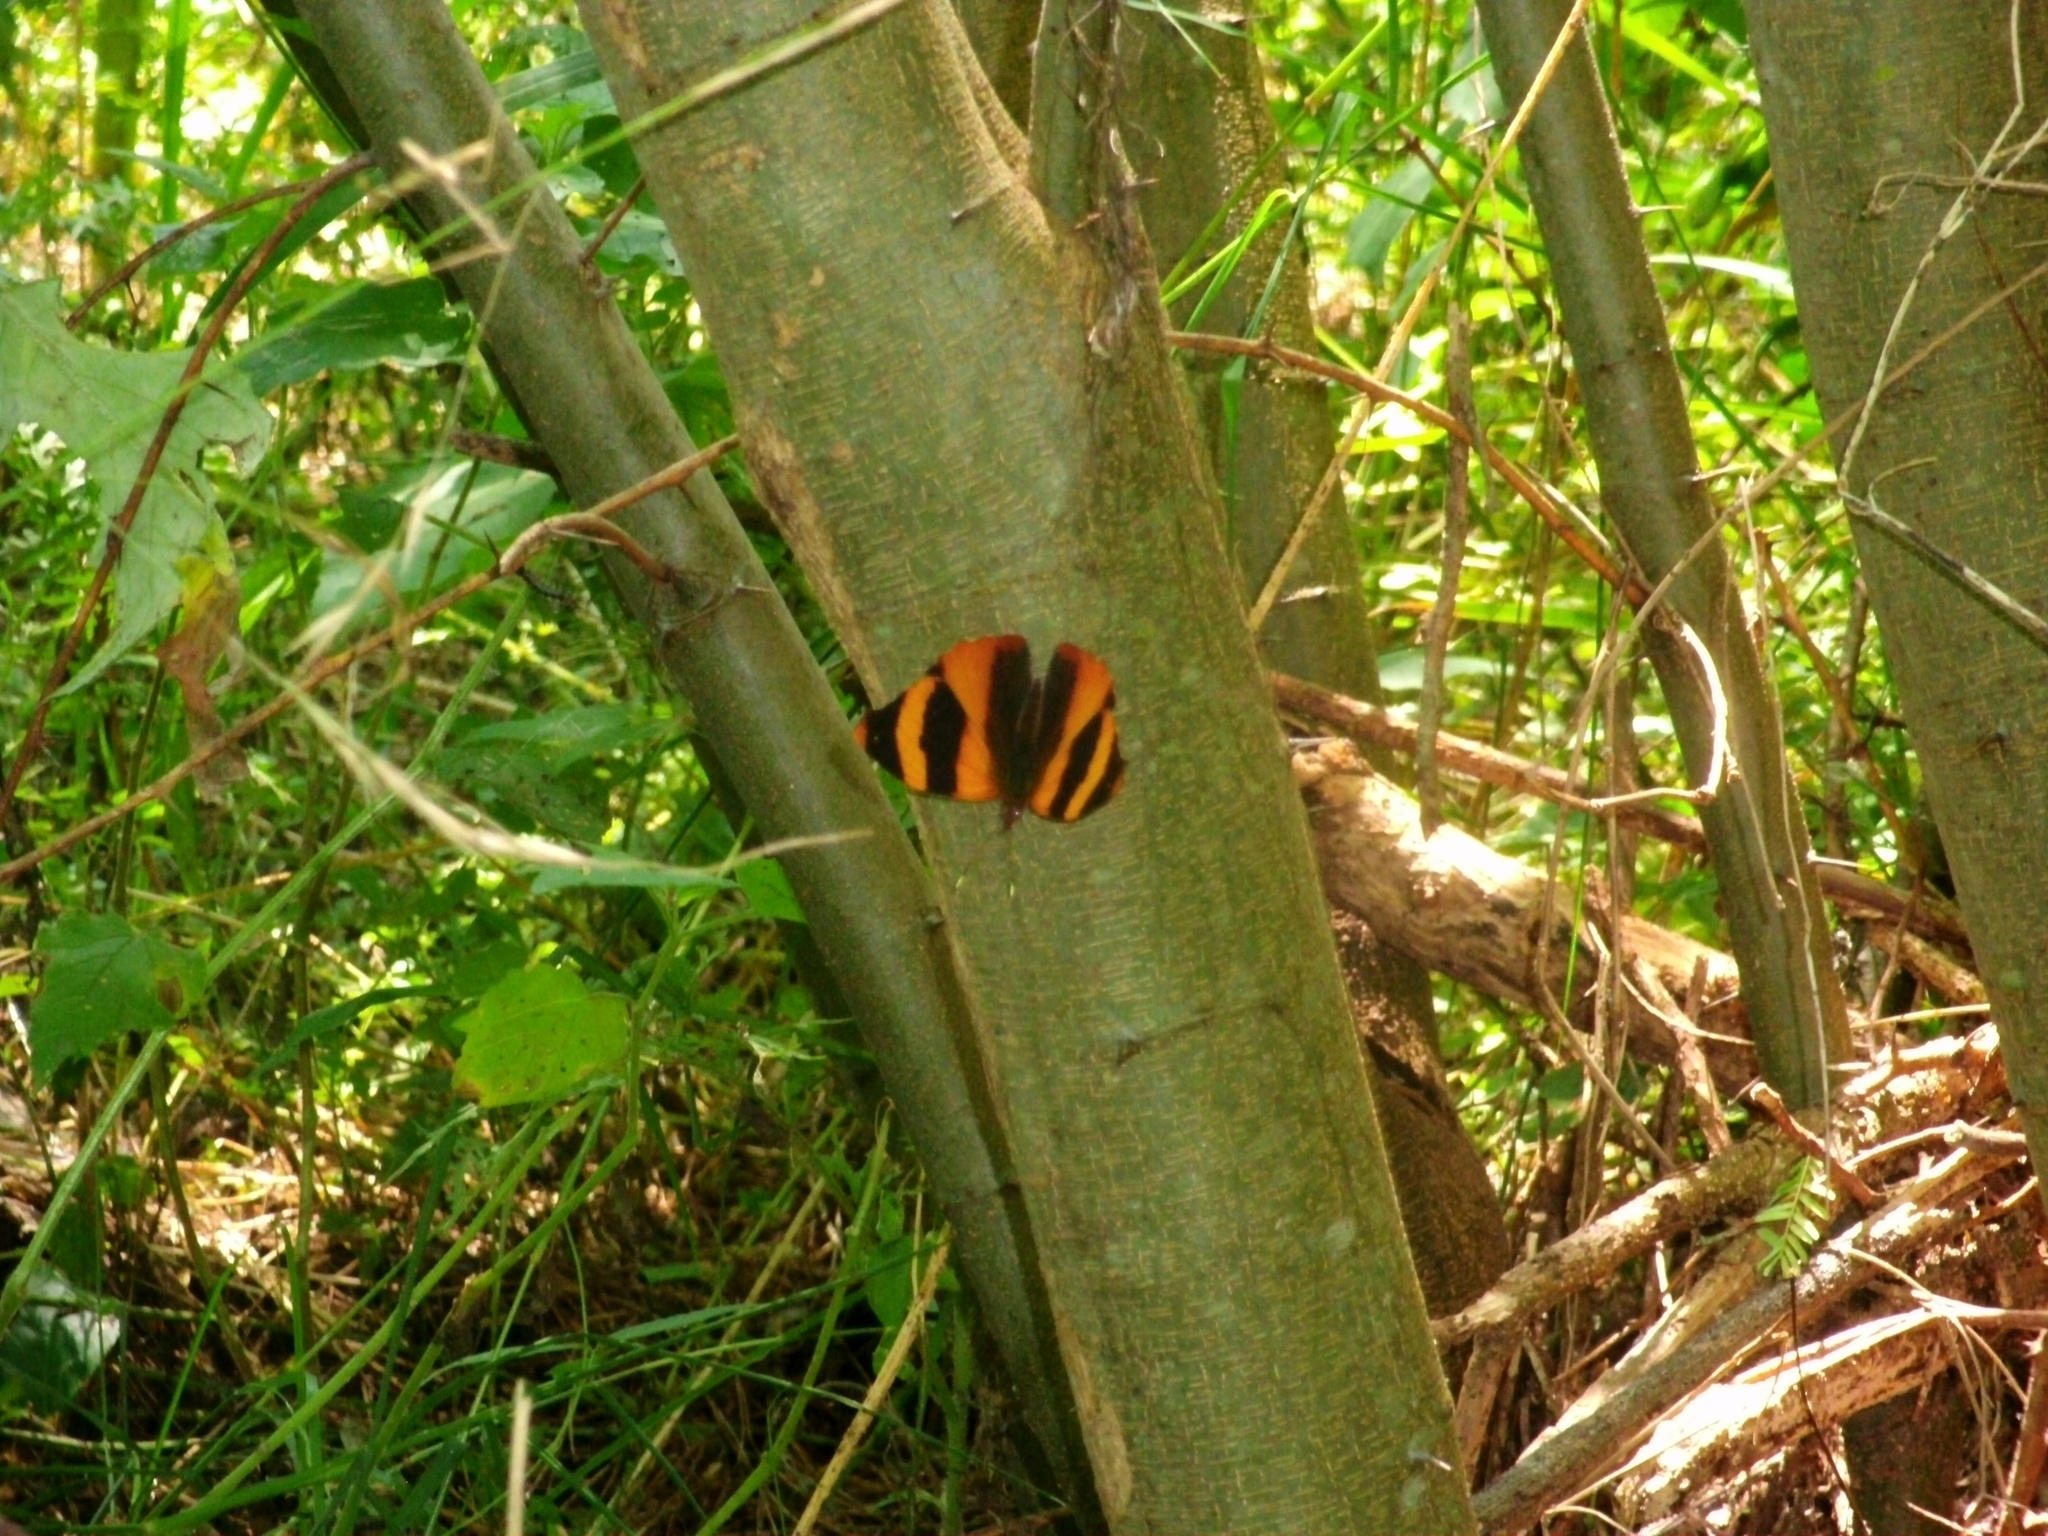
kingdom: Animalia
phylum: Arthropoda
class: Insecta
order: Lepidoptera
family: Nymphalidae
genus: Epiphile
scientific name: Epiphile adrasta
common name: Common banner
